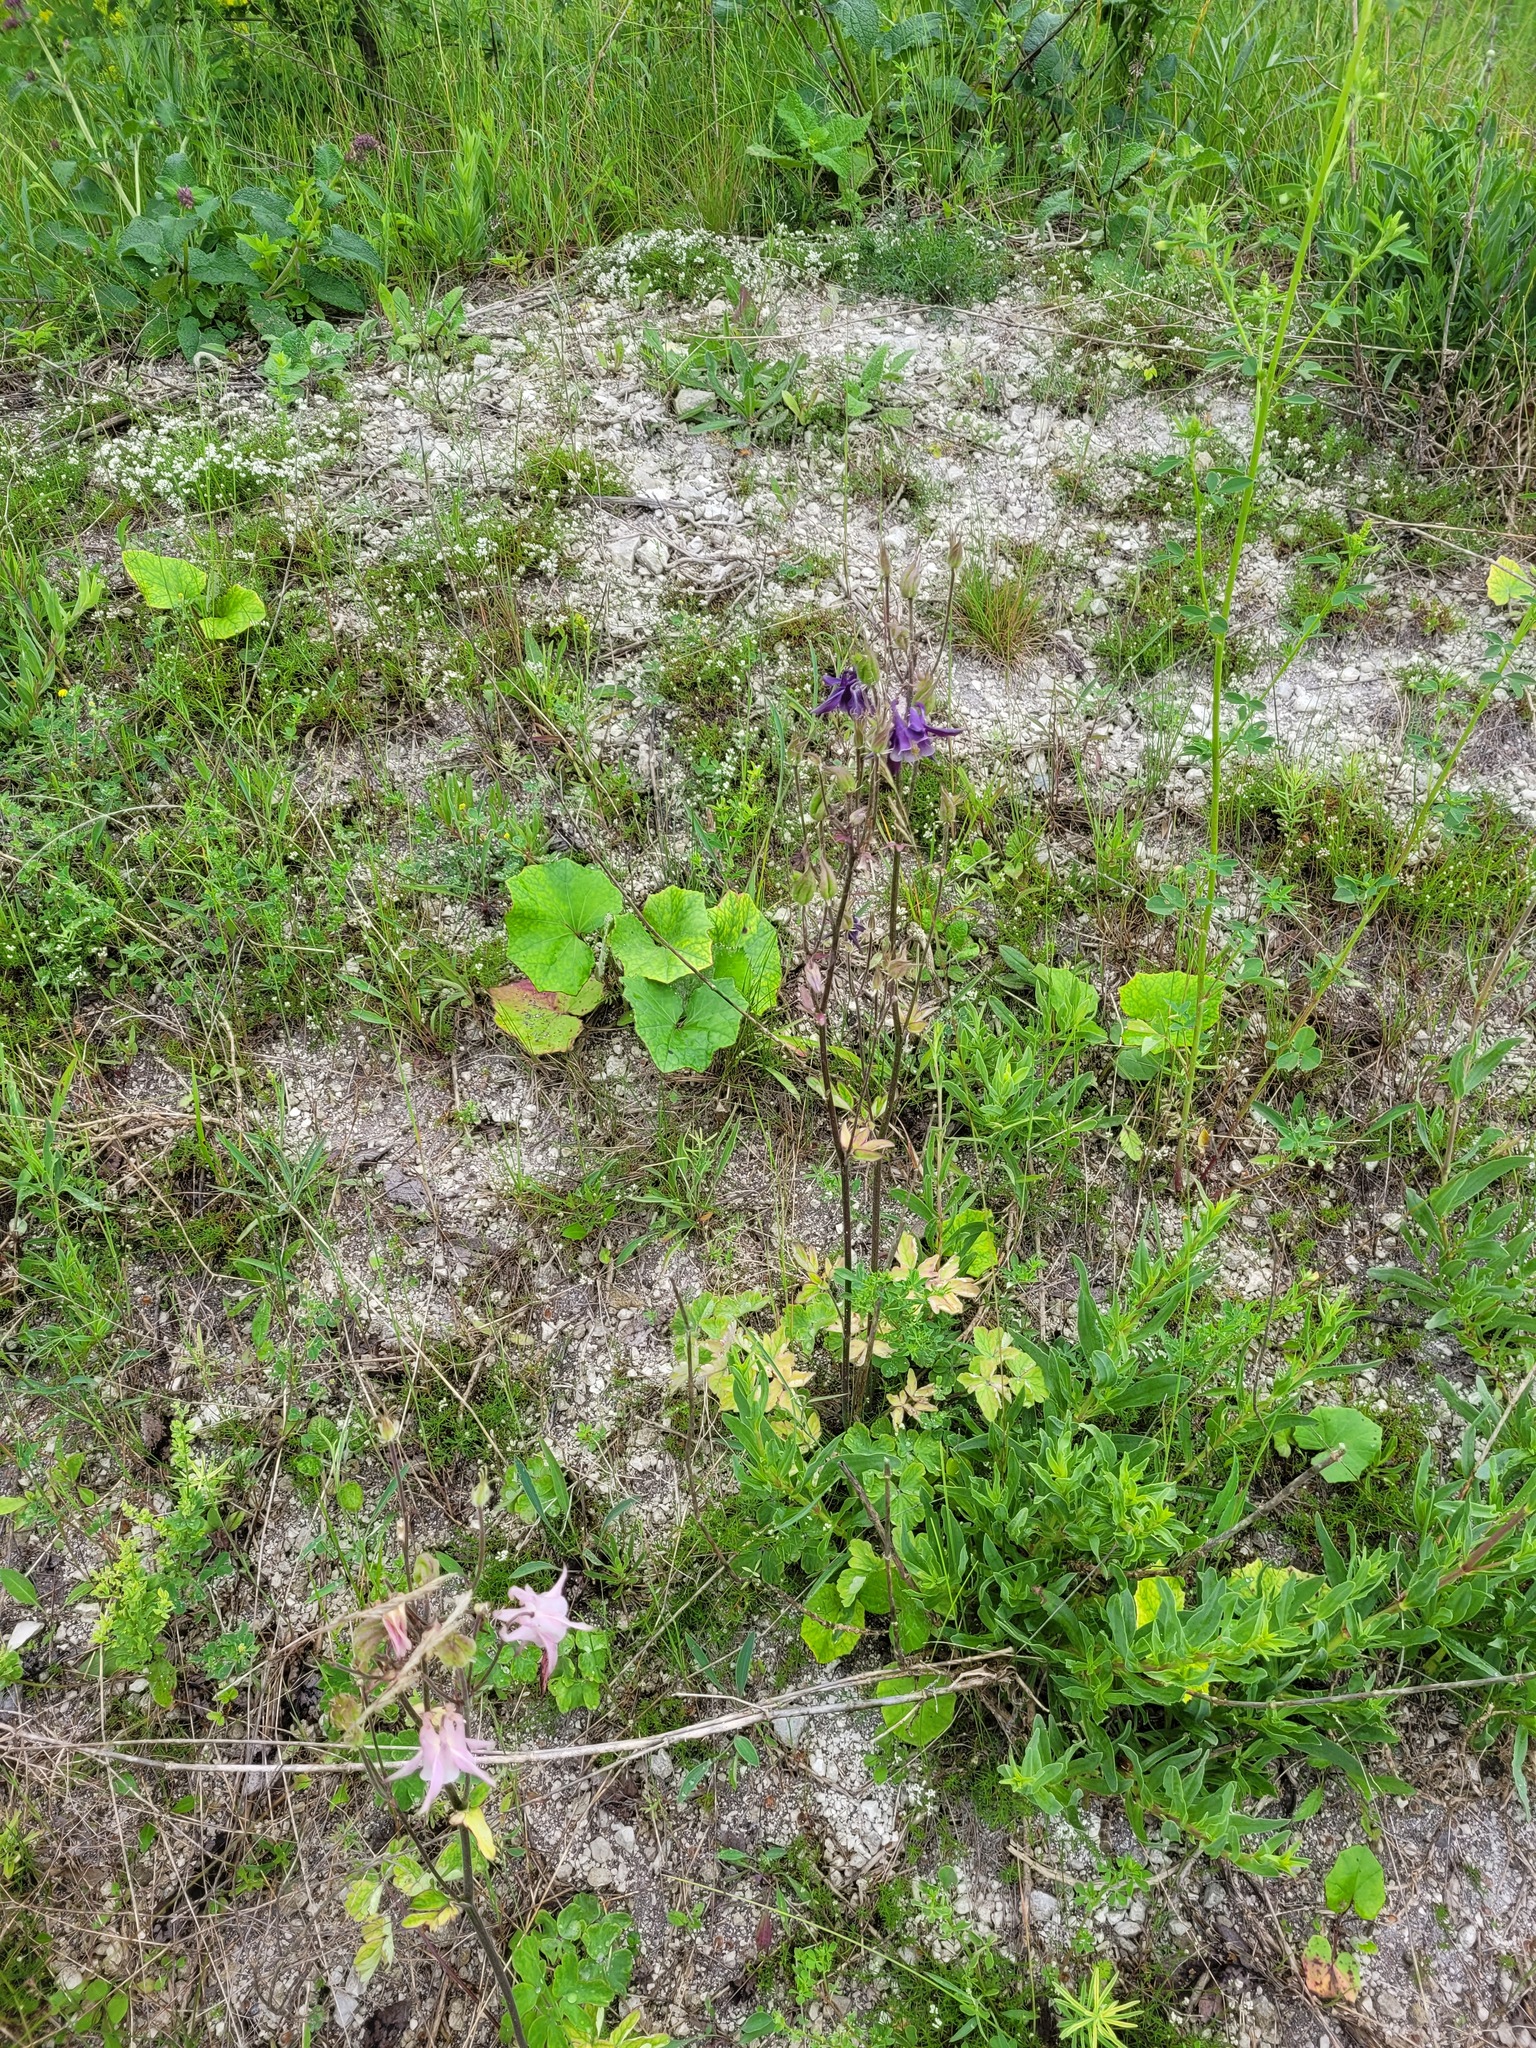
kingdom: Plantae
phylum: Tracheophyta
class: Magnoliopsida
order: Ranunculales
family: Ranunculaceae
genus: Aquilegia
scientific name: Aquilegia vulgaris
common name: Columbine
